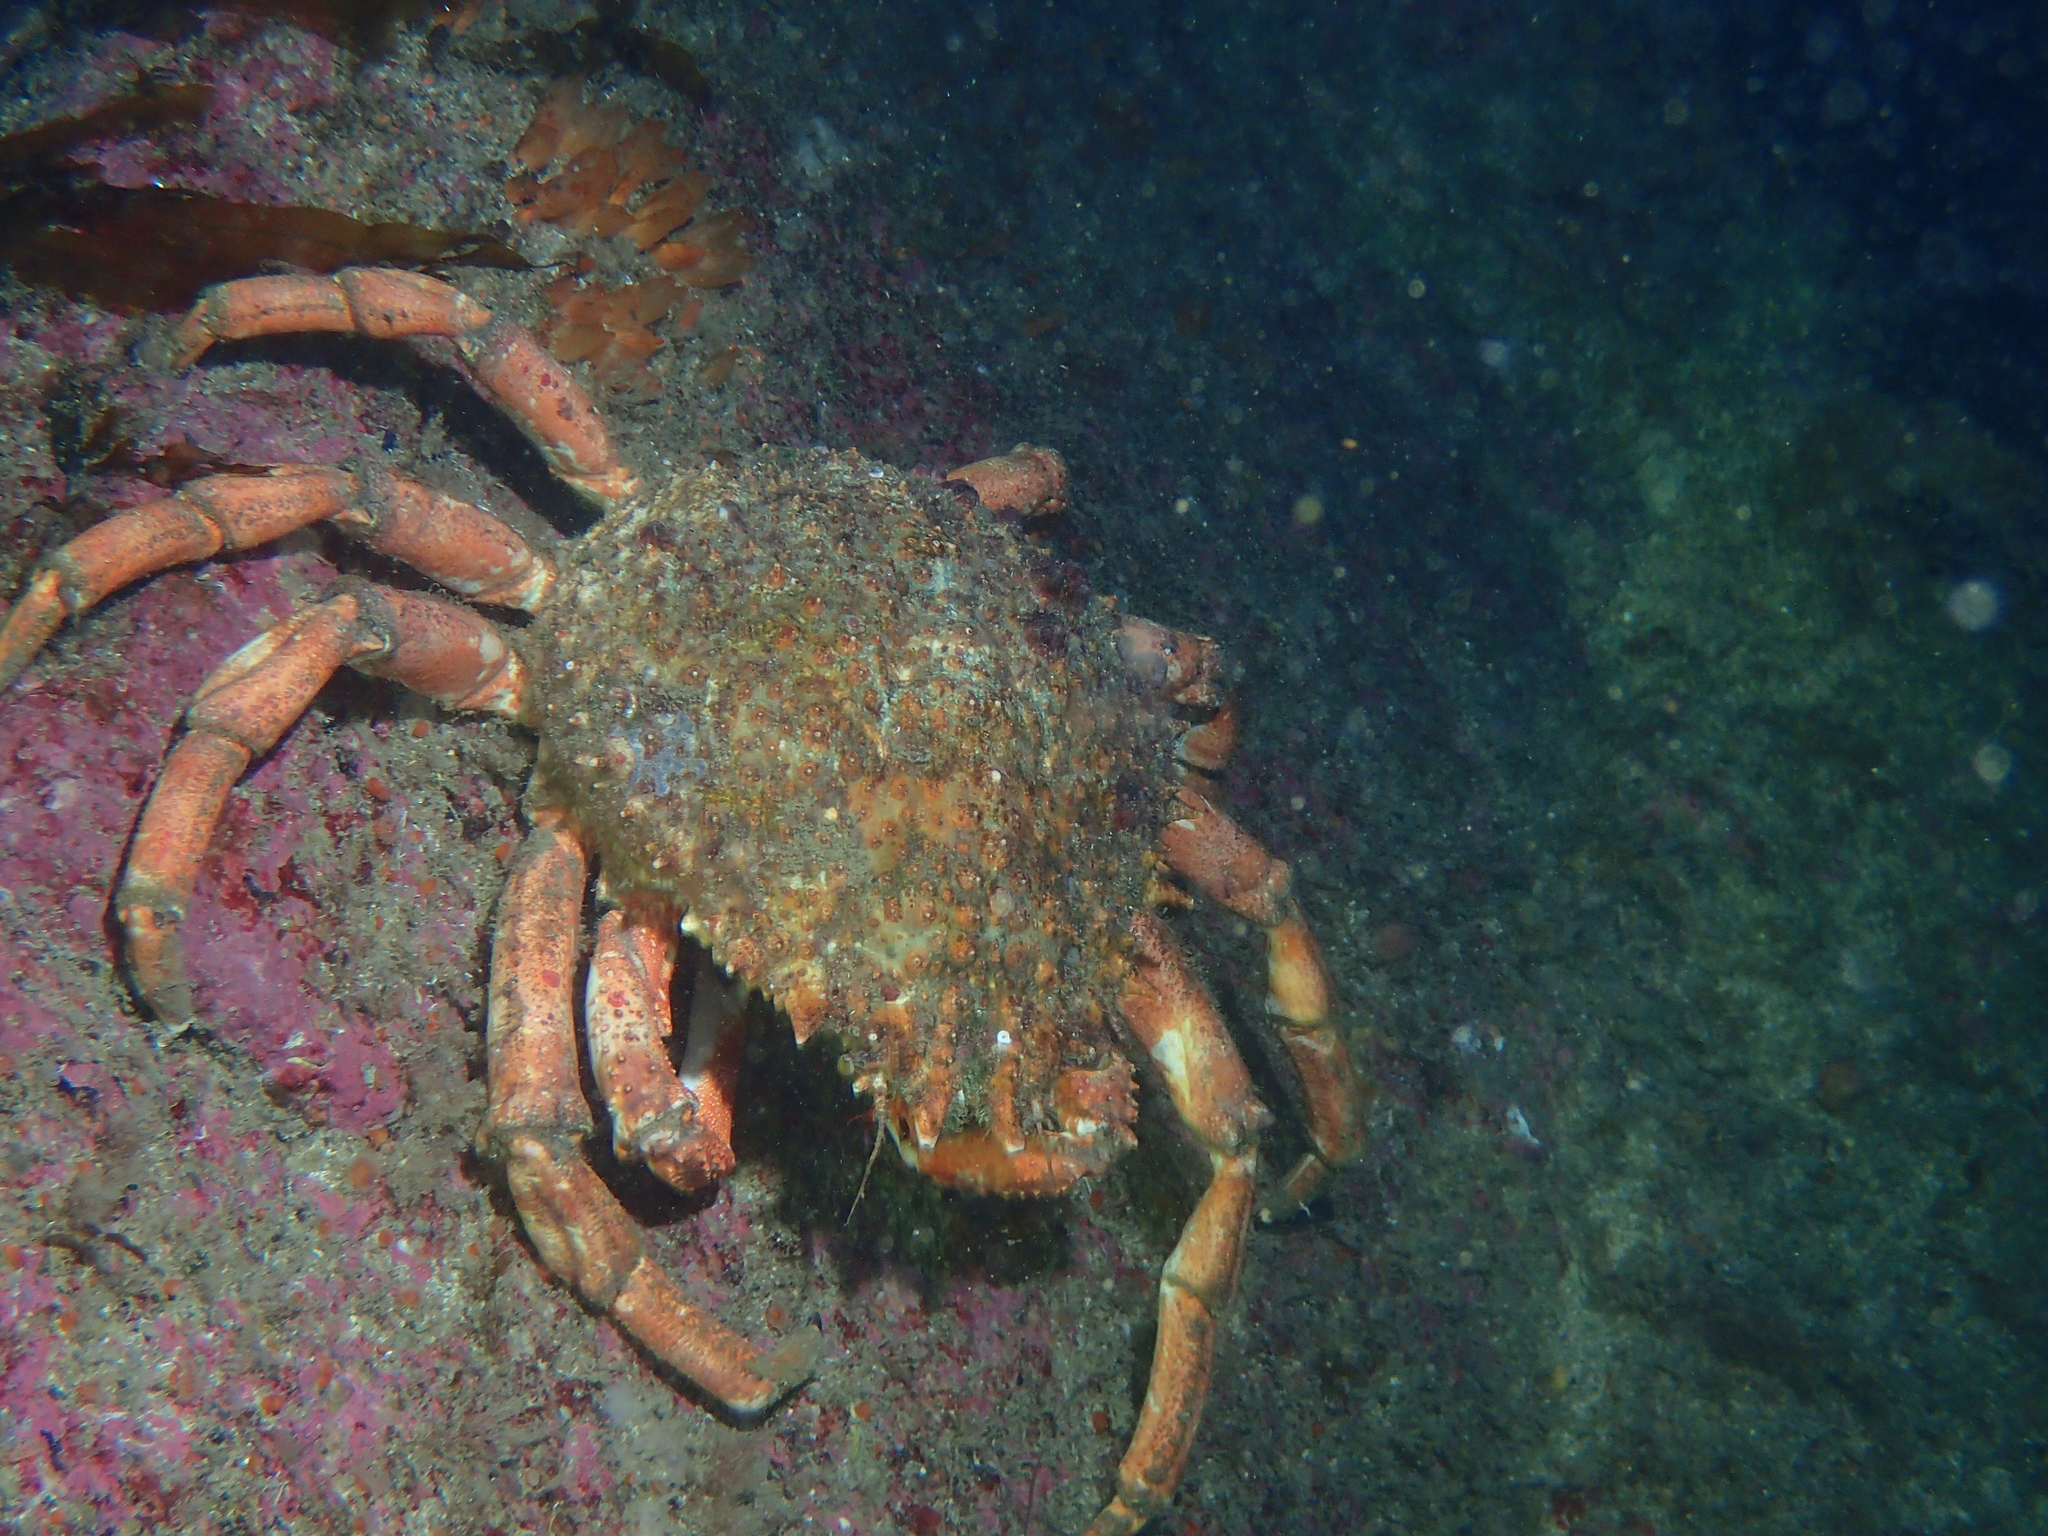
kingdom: Animalia
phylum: Arthropoda
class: Malacostraca
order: Decapoda
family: Majidae
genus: Maja
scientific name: Maja brachydactyla
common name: Common spider crab
